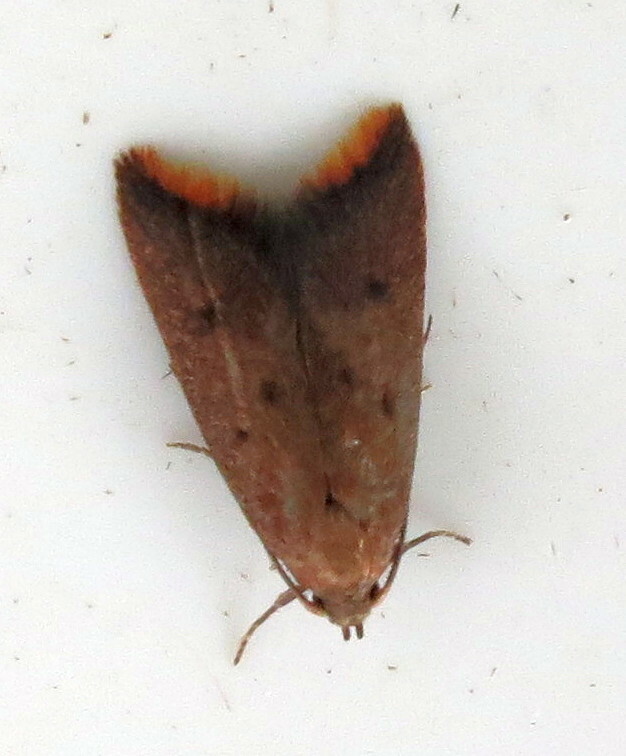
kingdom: Animalia
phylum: Arthropoda
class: Insecta
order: Lepidoptera
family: Oecophoridae
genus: Tachystola
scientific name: Tachystola acroxantha
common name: Ruddy streak
